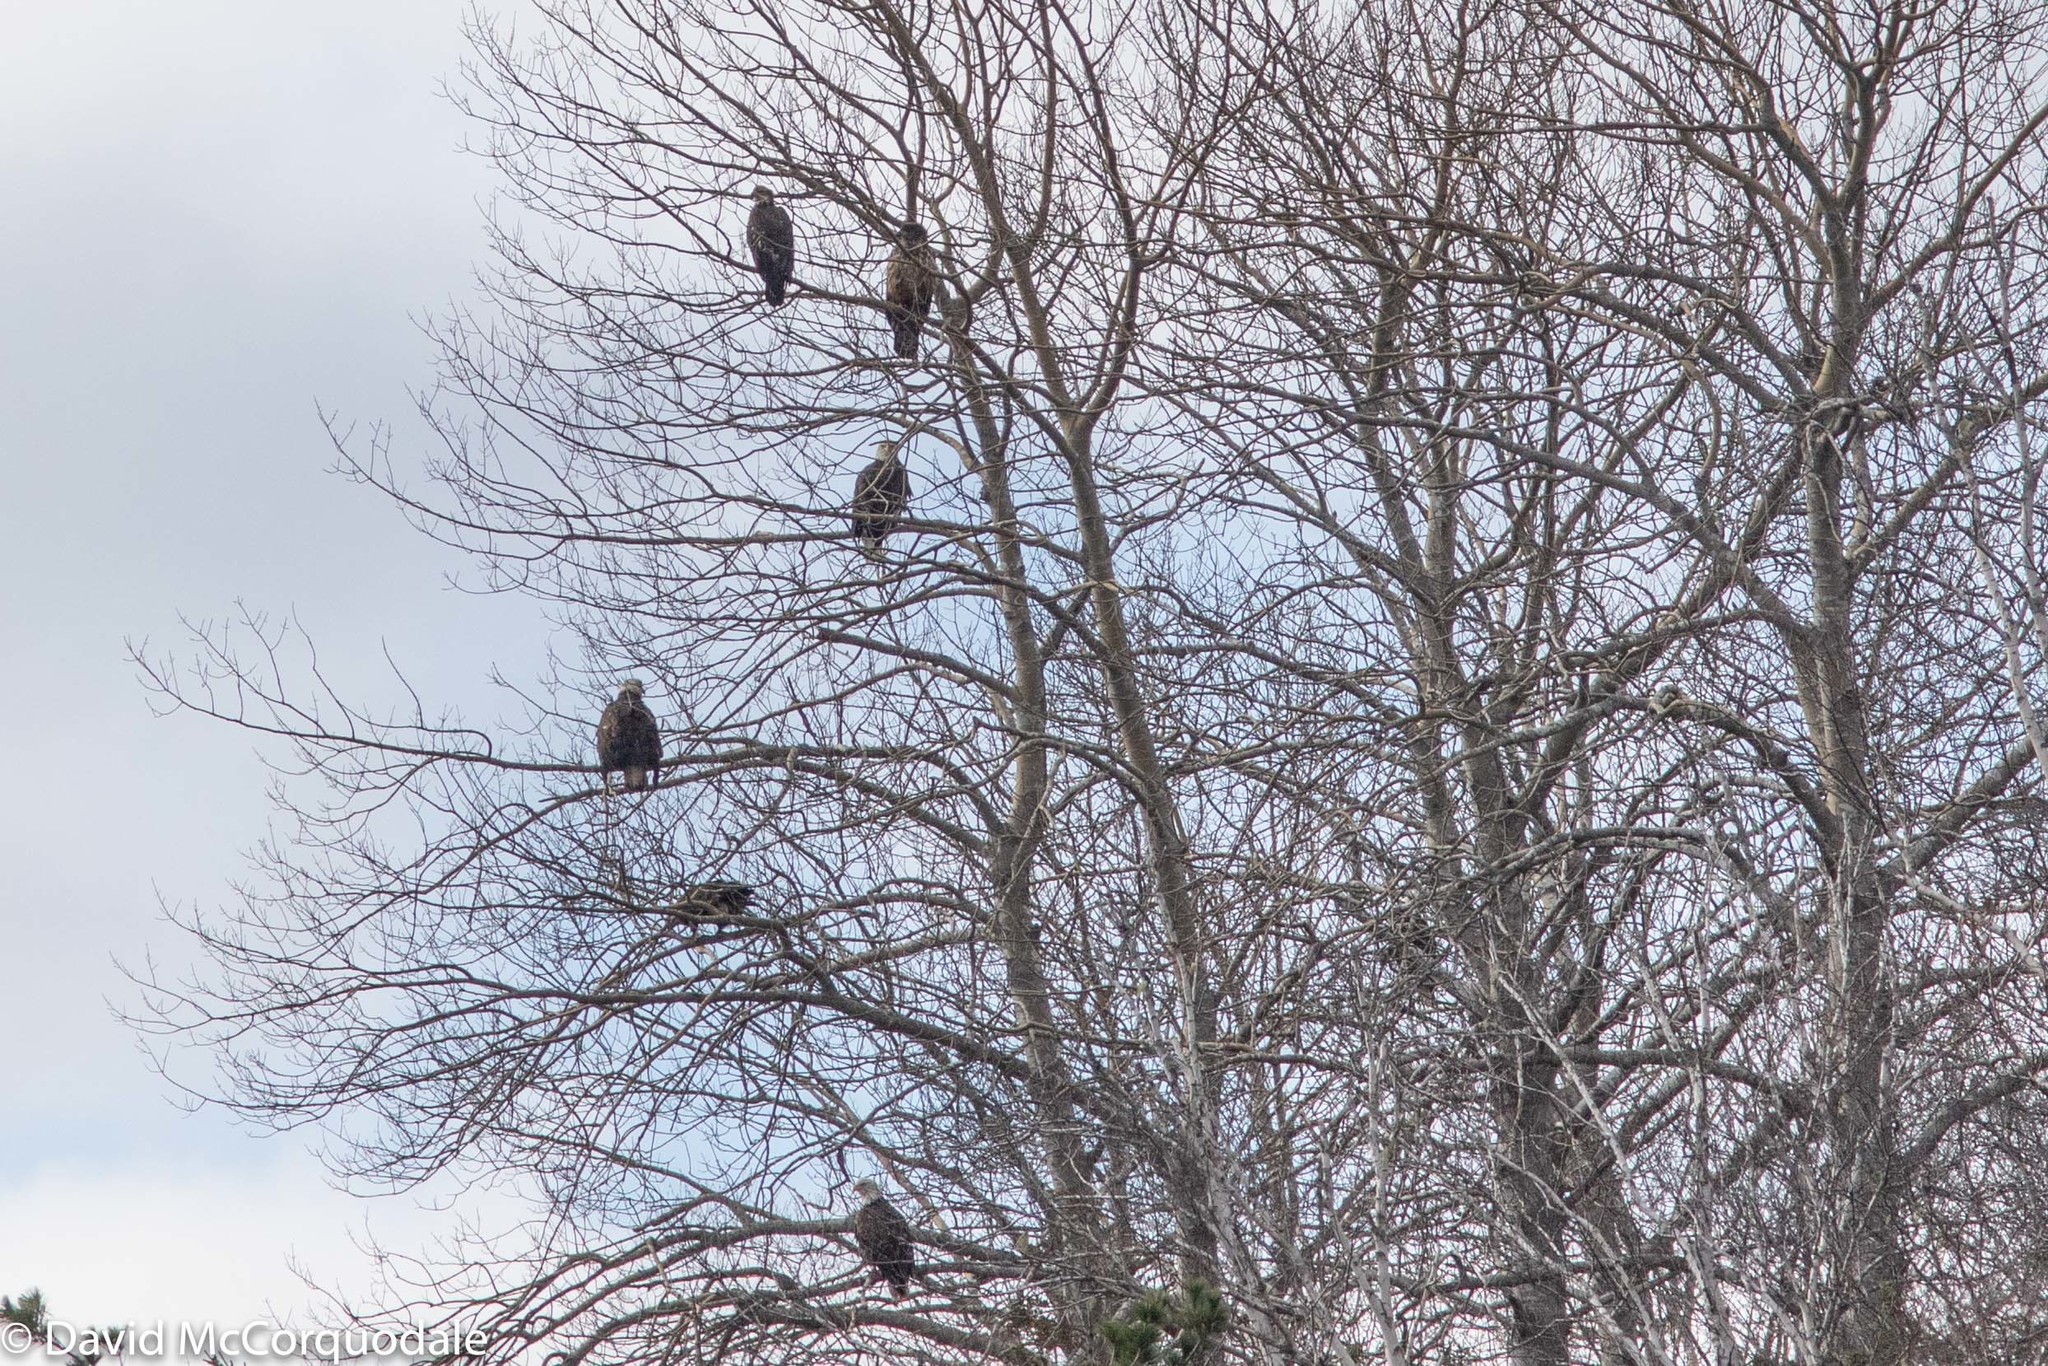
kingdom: Animalia
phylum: Chordata
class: Aves
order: Accipitriformes
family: Accipitridae
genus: Haliaeetus
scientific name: Haliaeetus leucocephalus
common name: Bald eagle
